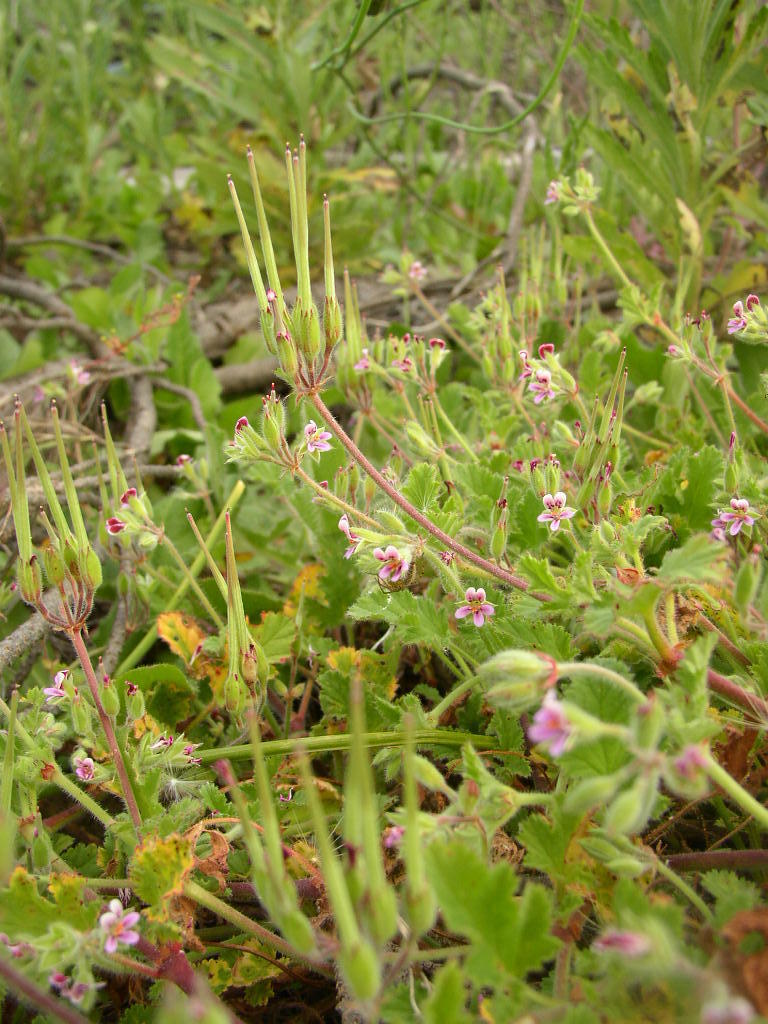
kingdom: Plantae
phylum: Tracheophyta
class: Magnoliopsida
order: Geraniales
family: Geraniaceae
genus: Pelargonium
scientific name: Pelargonium althaeoides
